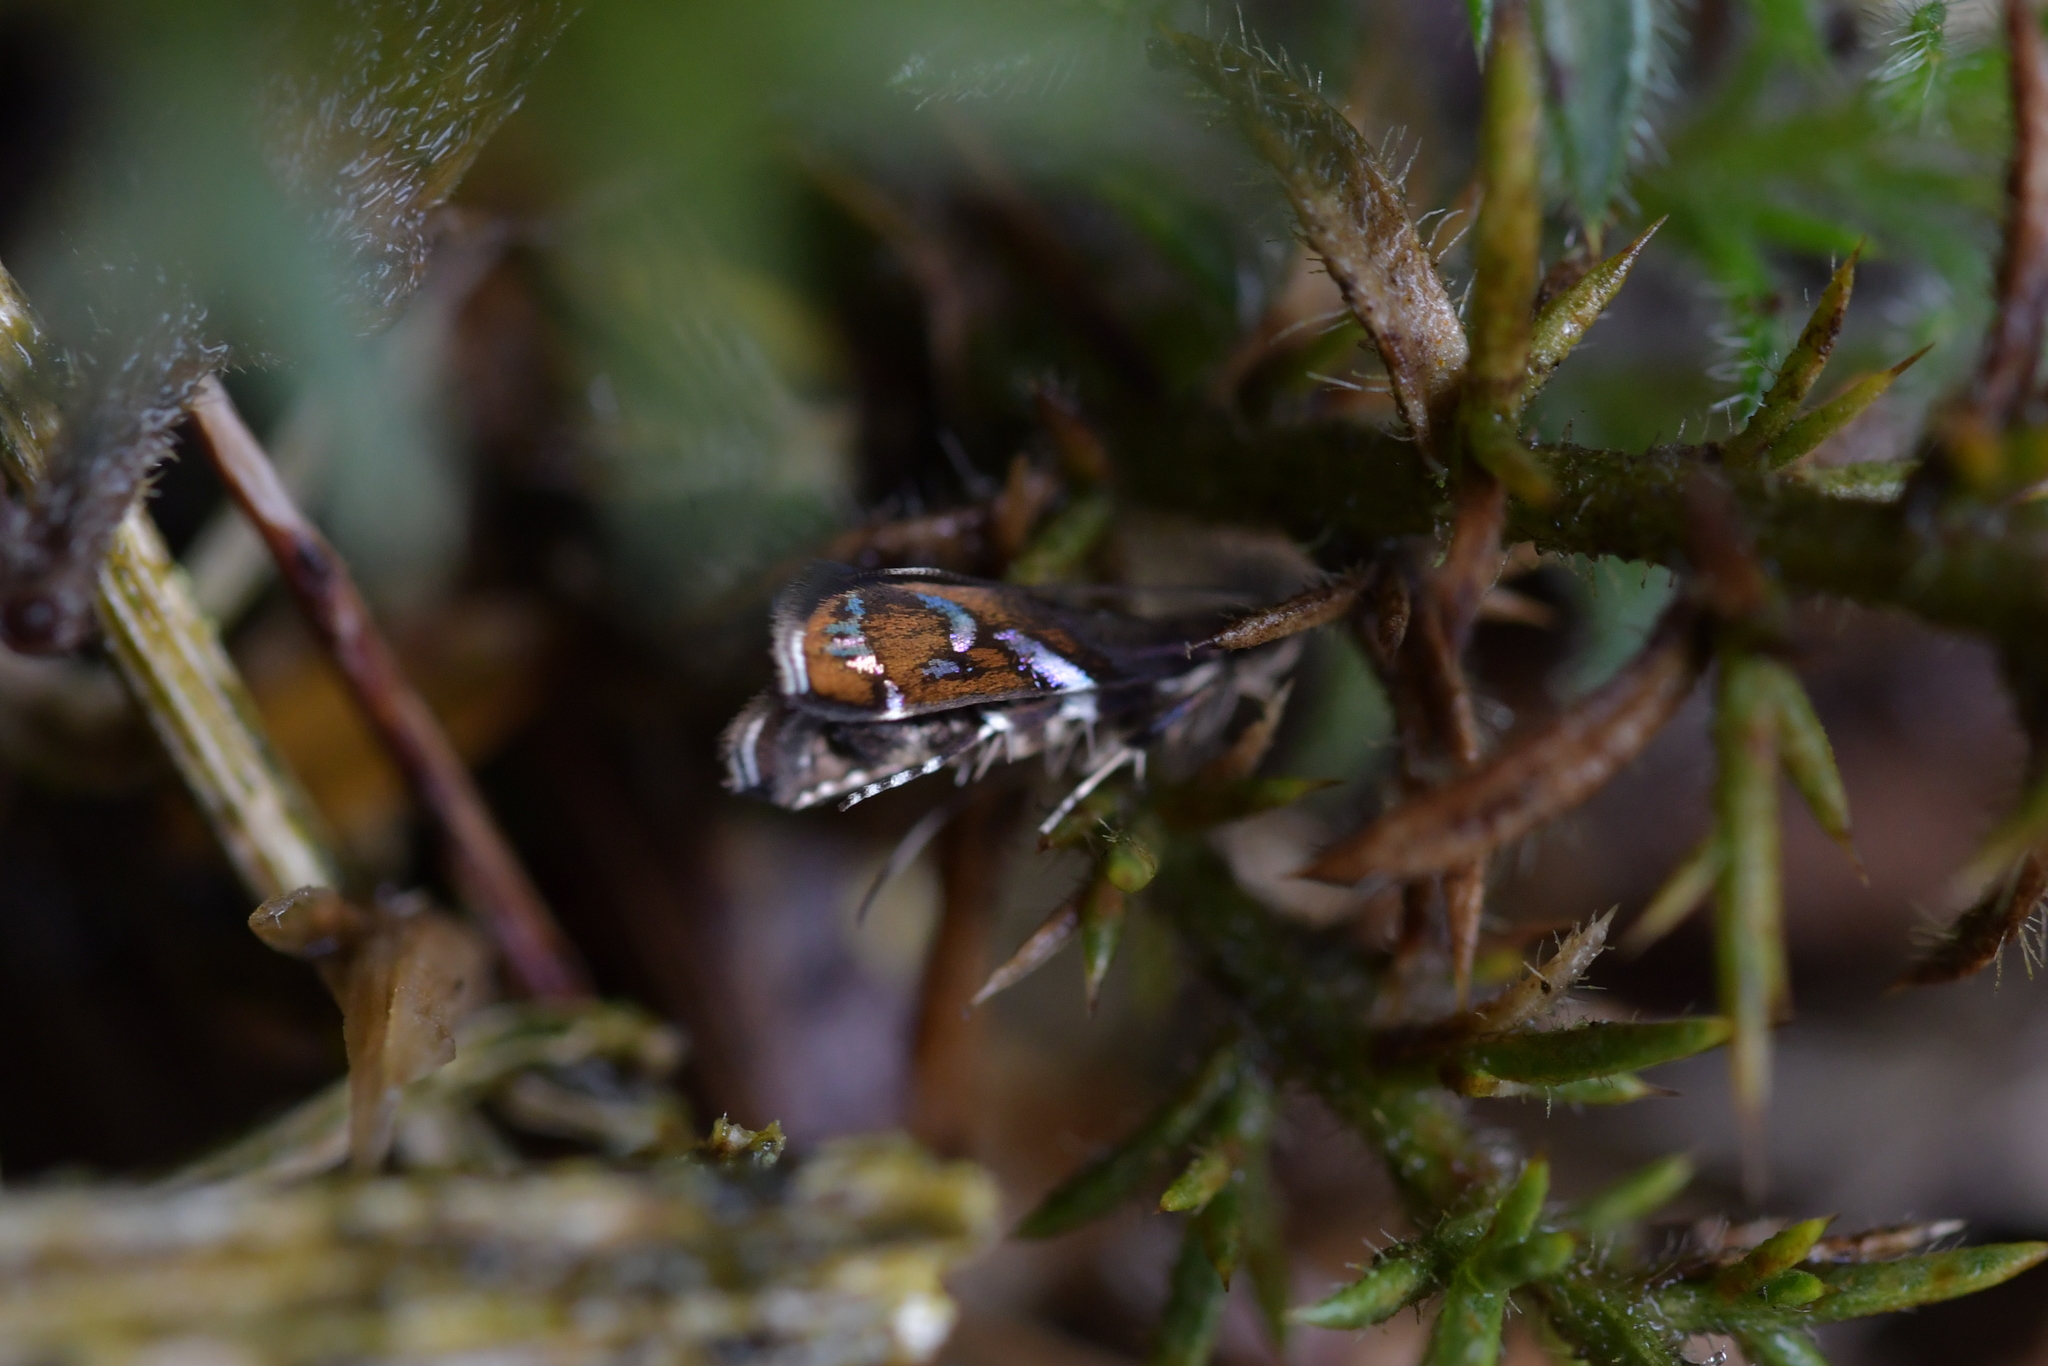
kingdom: Animalia
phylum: Arthropoda
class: Insecta
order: Lepidoptera
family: Depressariidae
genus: Compsistis
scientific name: Compsistis bifaciella
